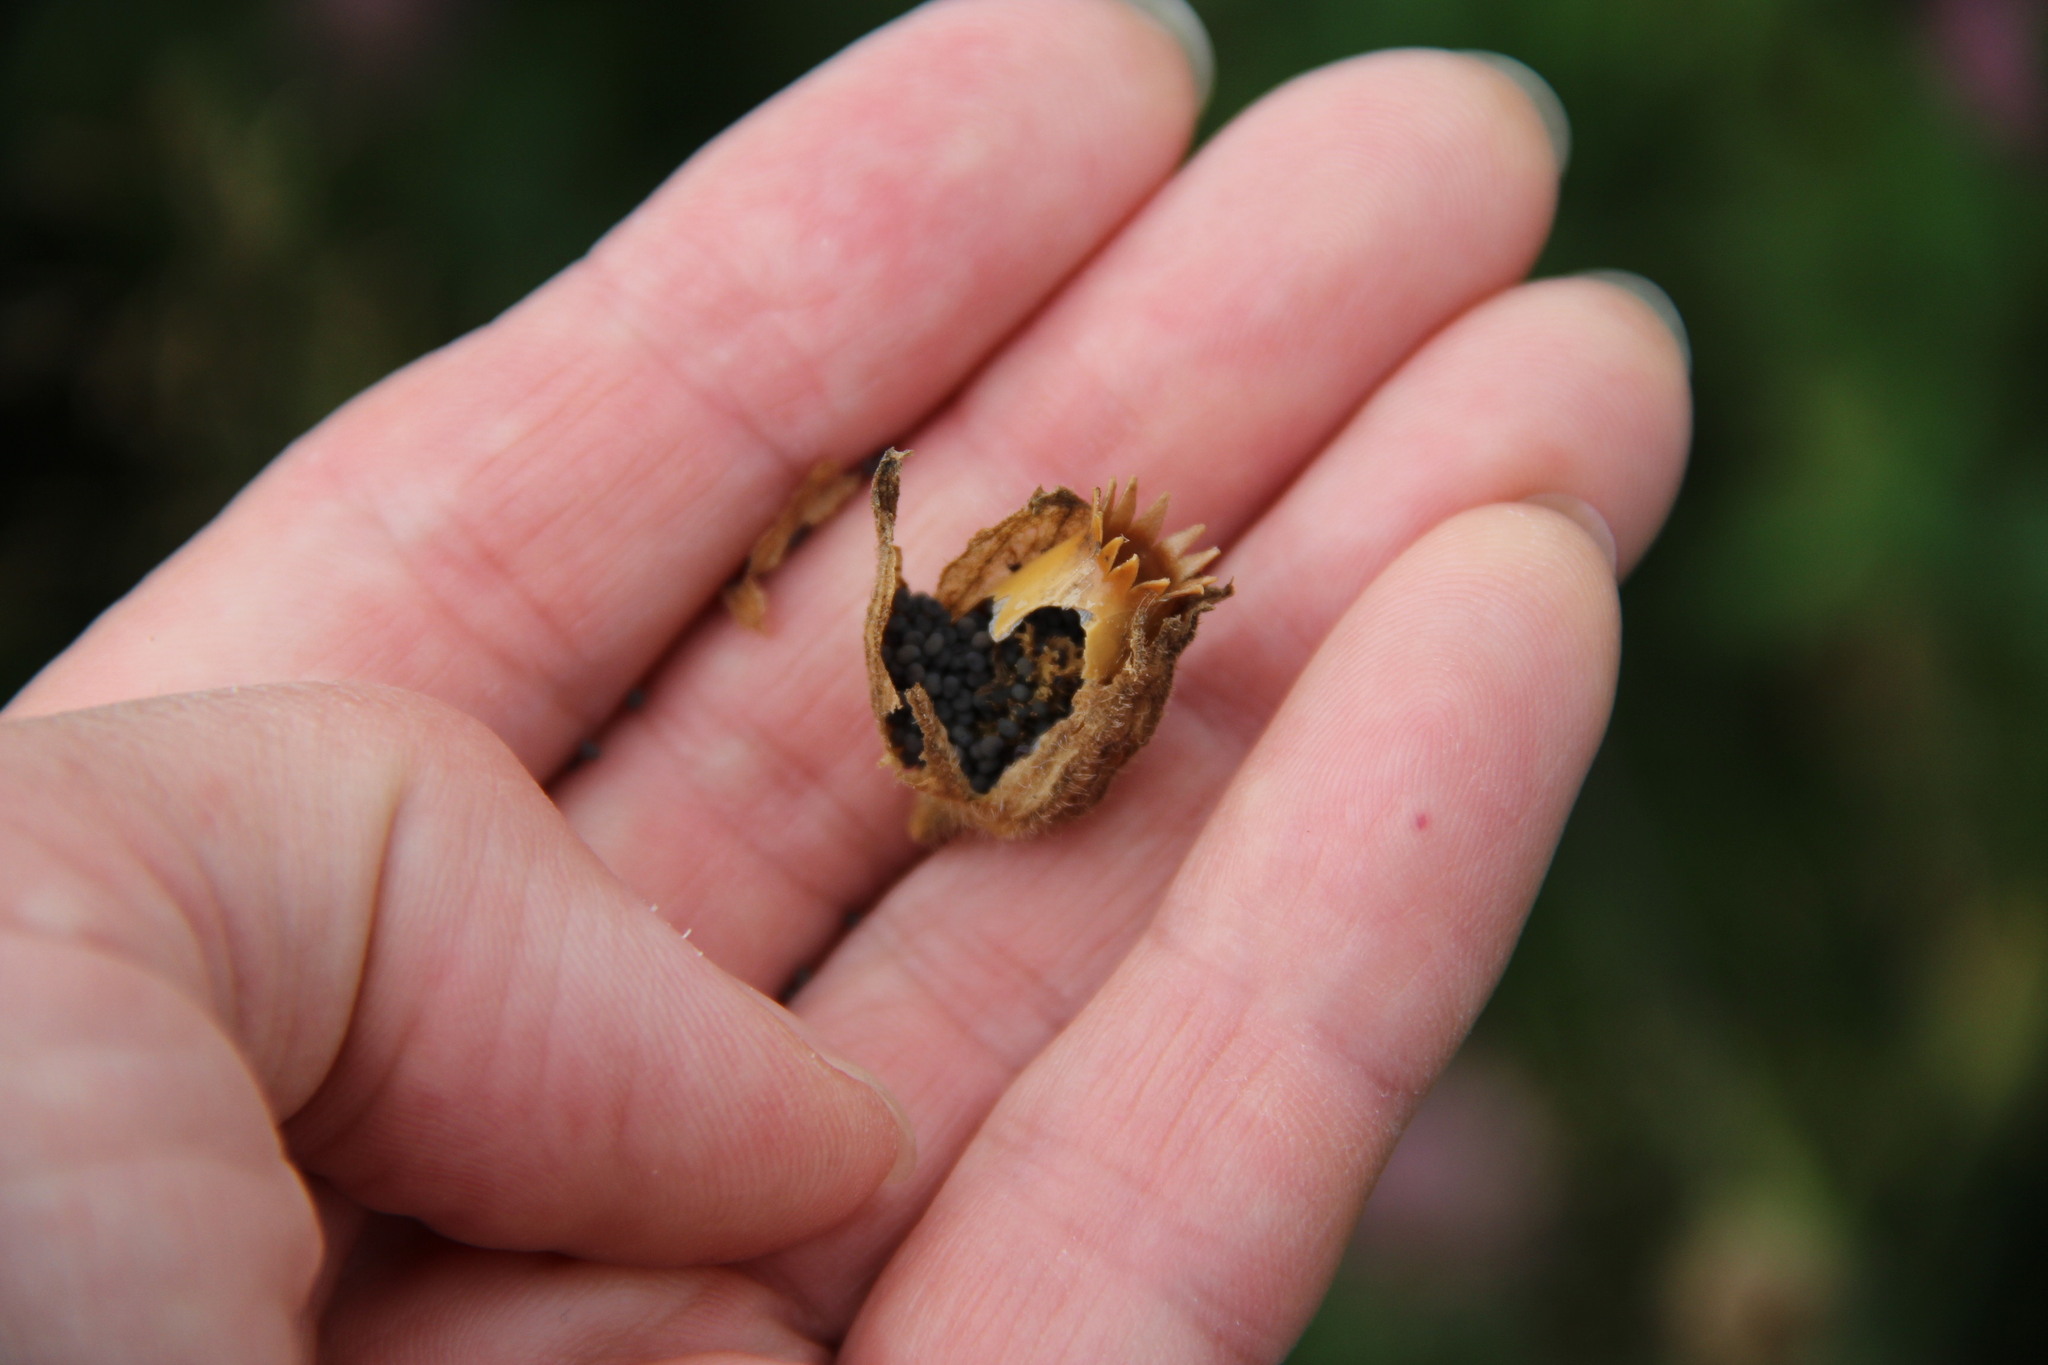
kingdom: Plantae
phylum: Tracheophyta
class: Magnoliopsida
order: Caryophyllales
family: Caryophyllaceae
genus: Silene
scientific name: Silene latifolia
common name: White campion
